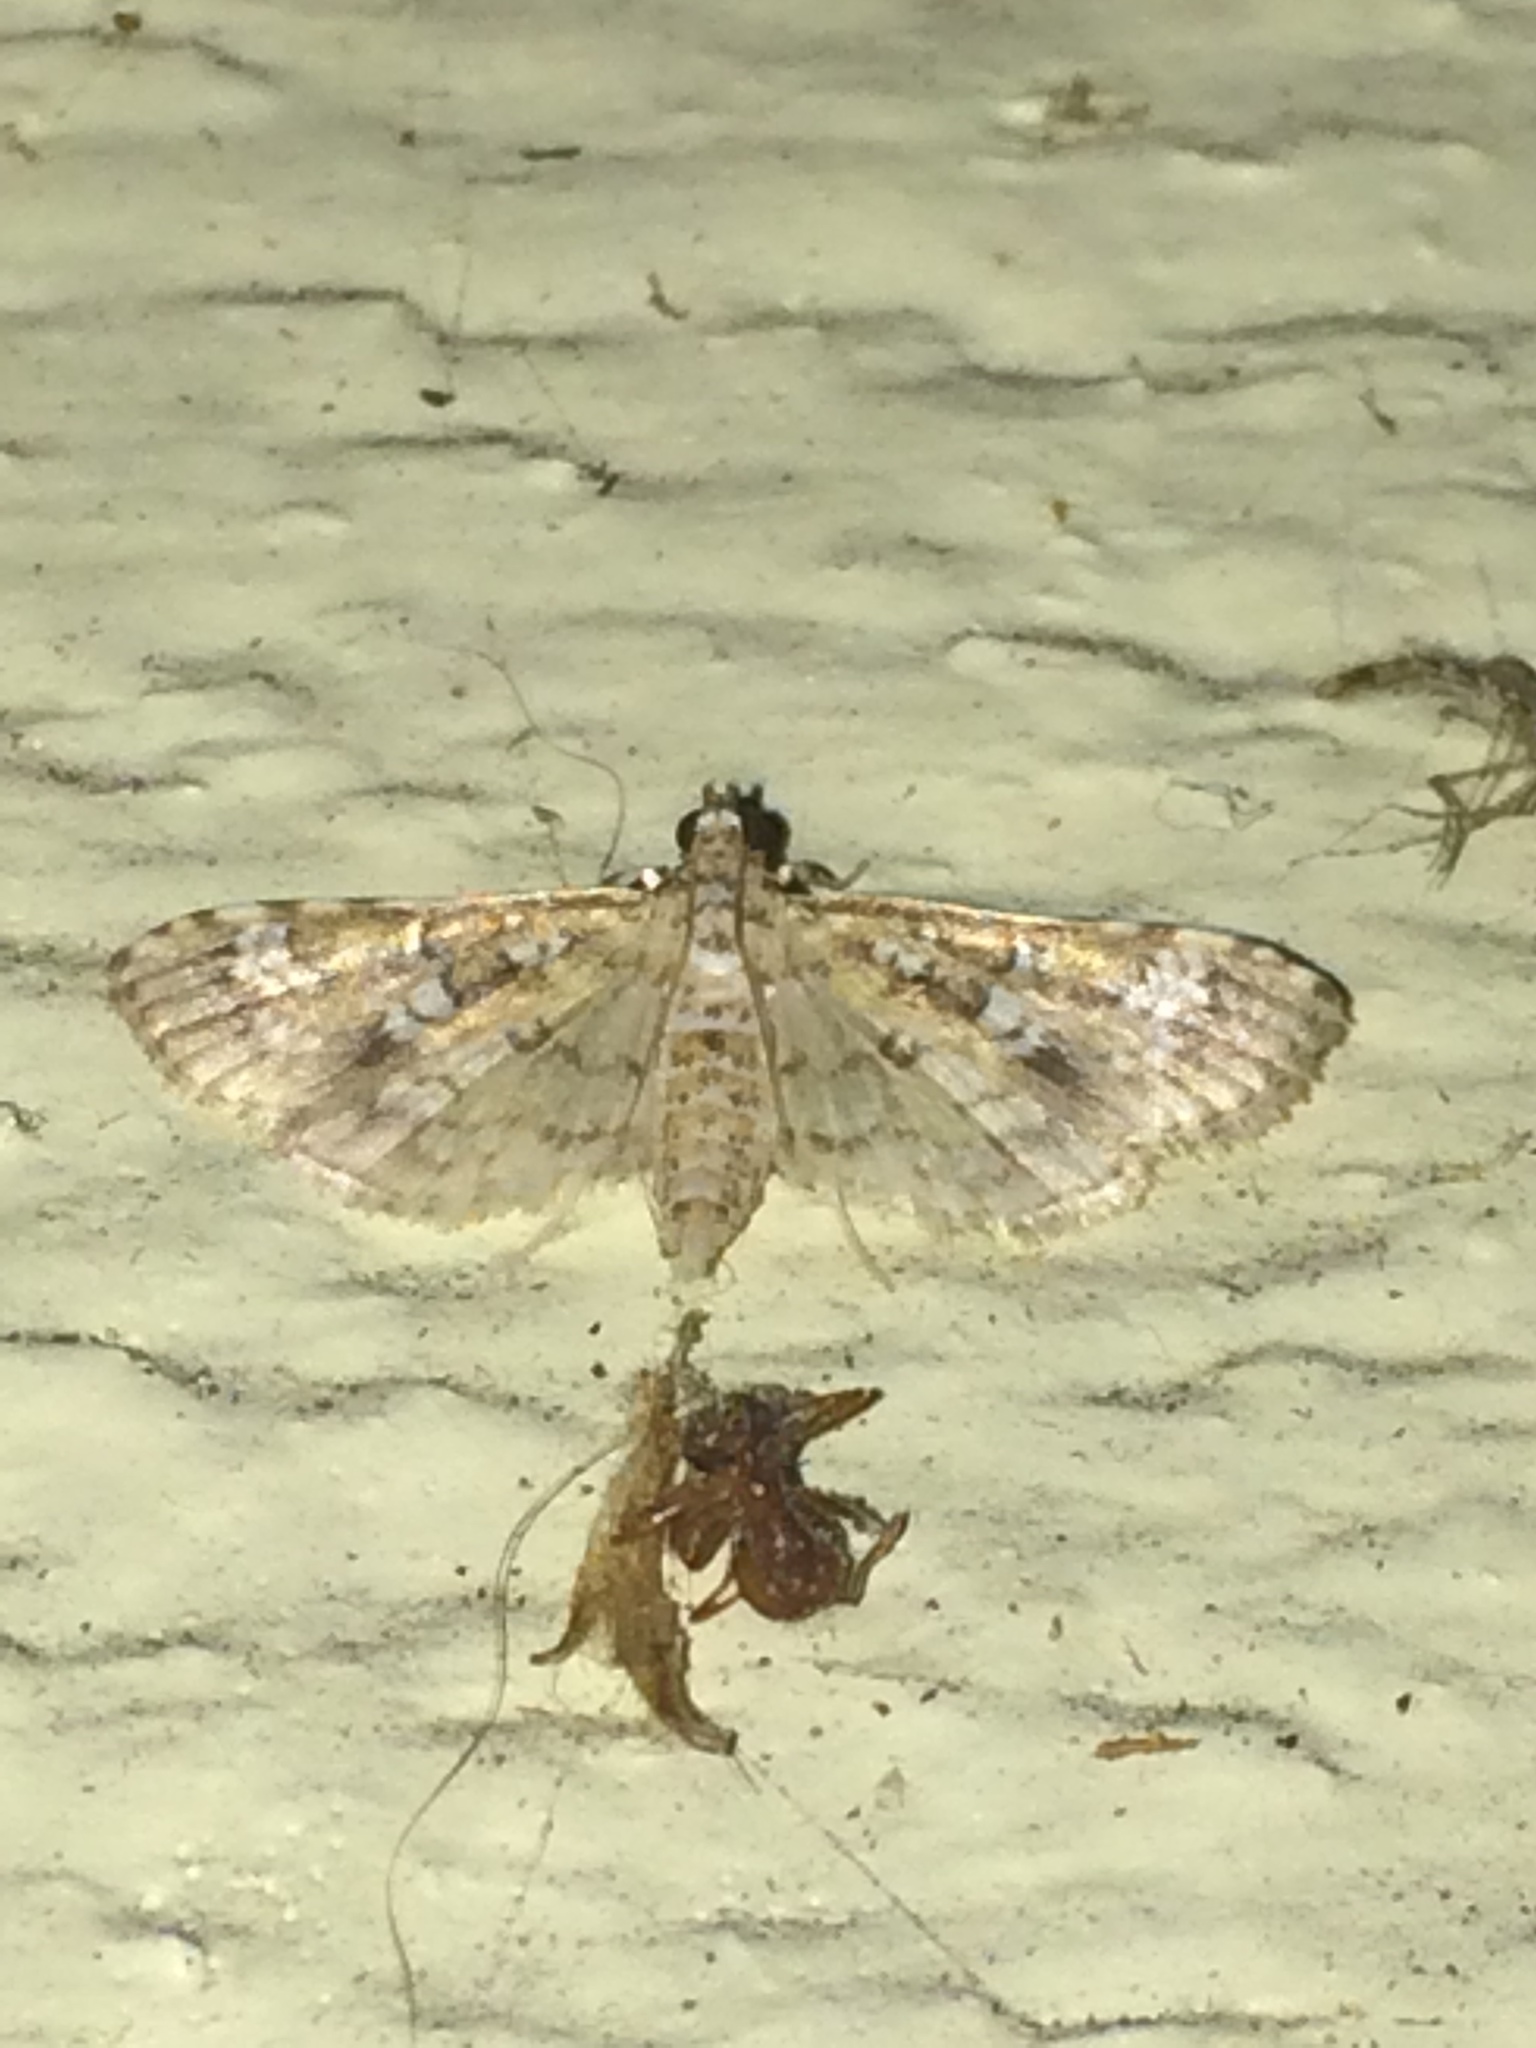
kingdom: Animalia
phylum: Arthropoda
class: Insecta
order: Lepidoptera
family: Crambidae
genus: Samea
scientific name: Samea multiplicalis
